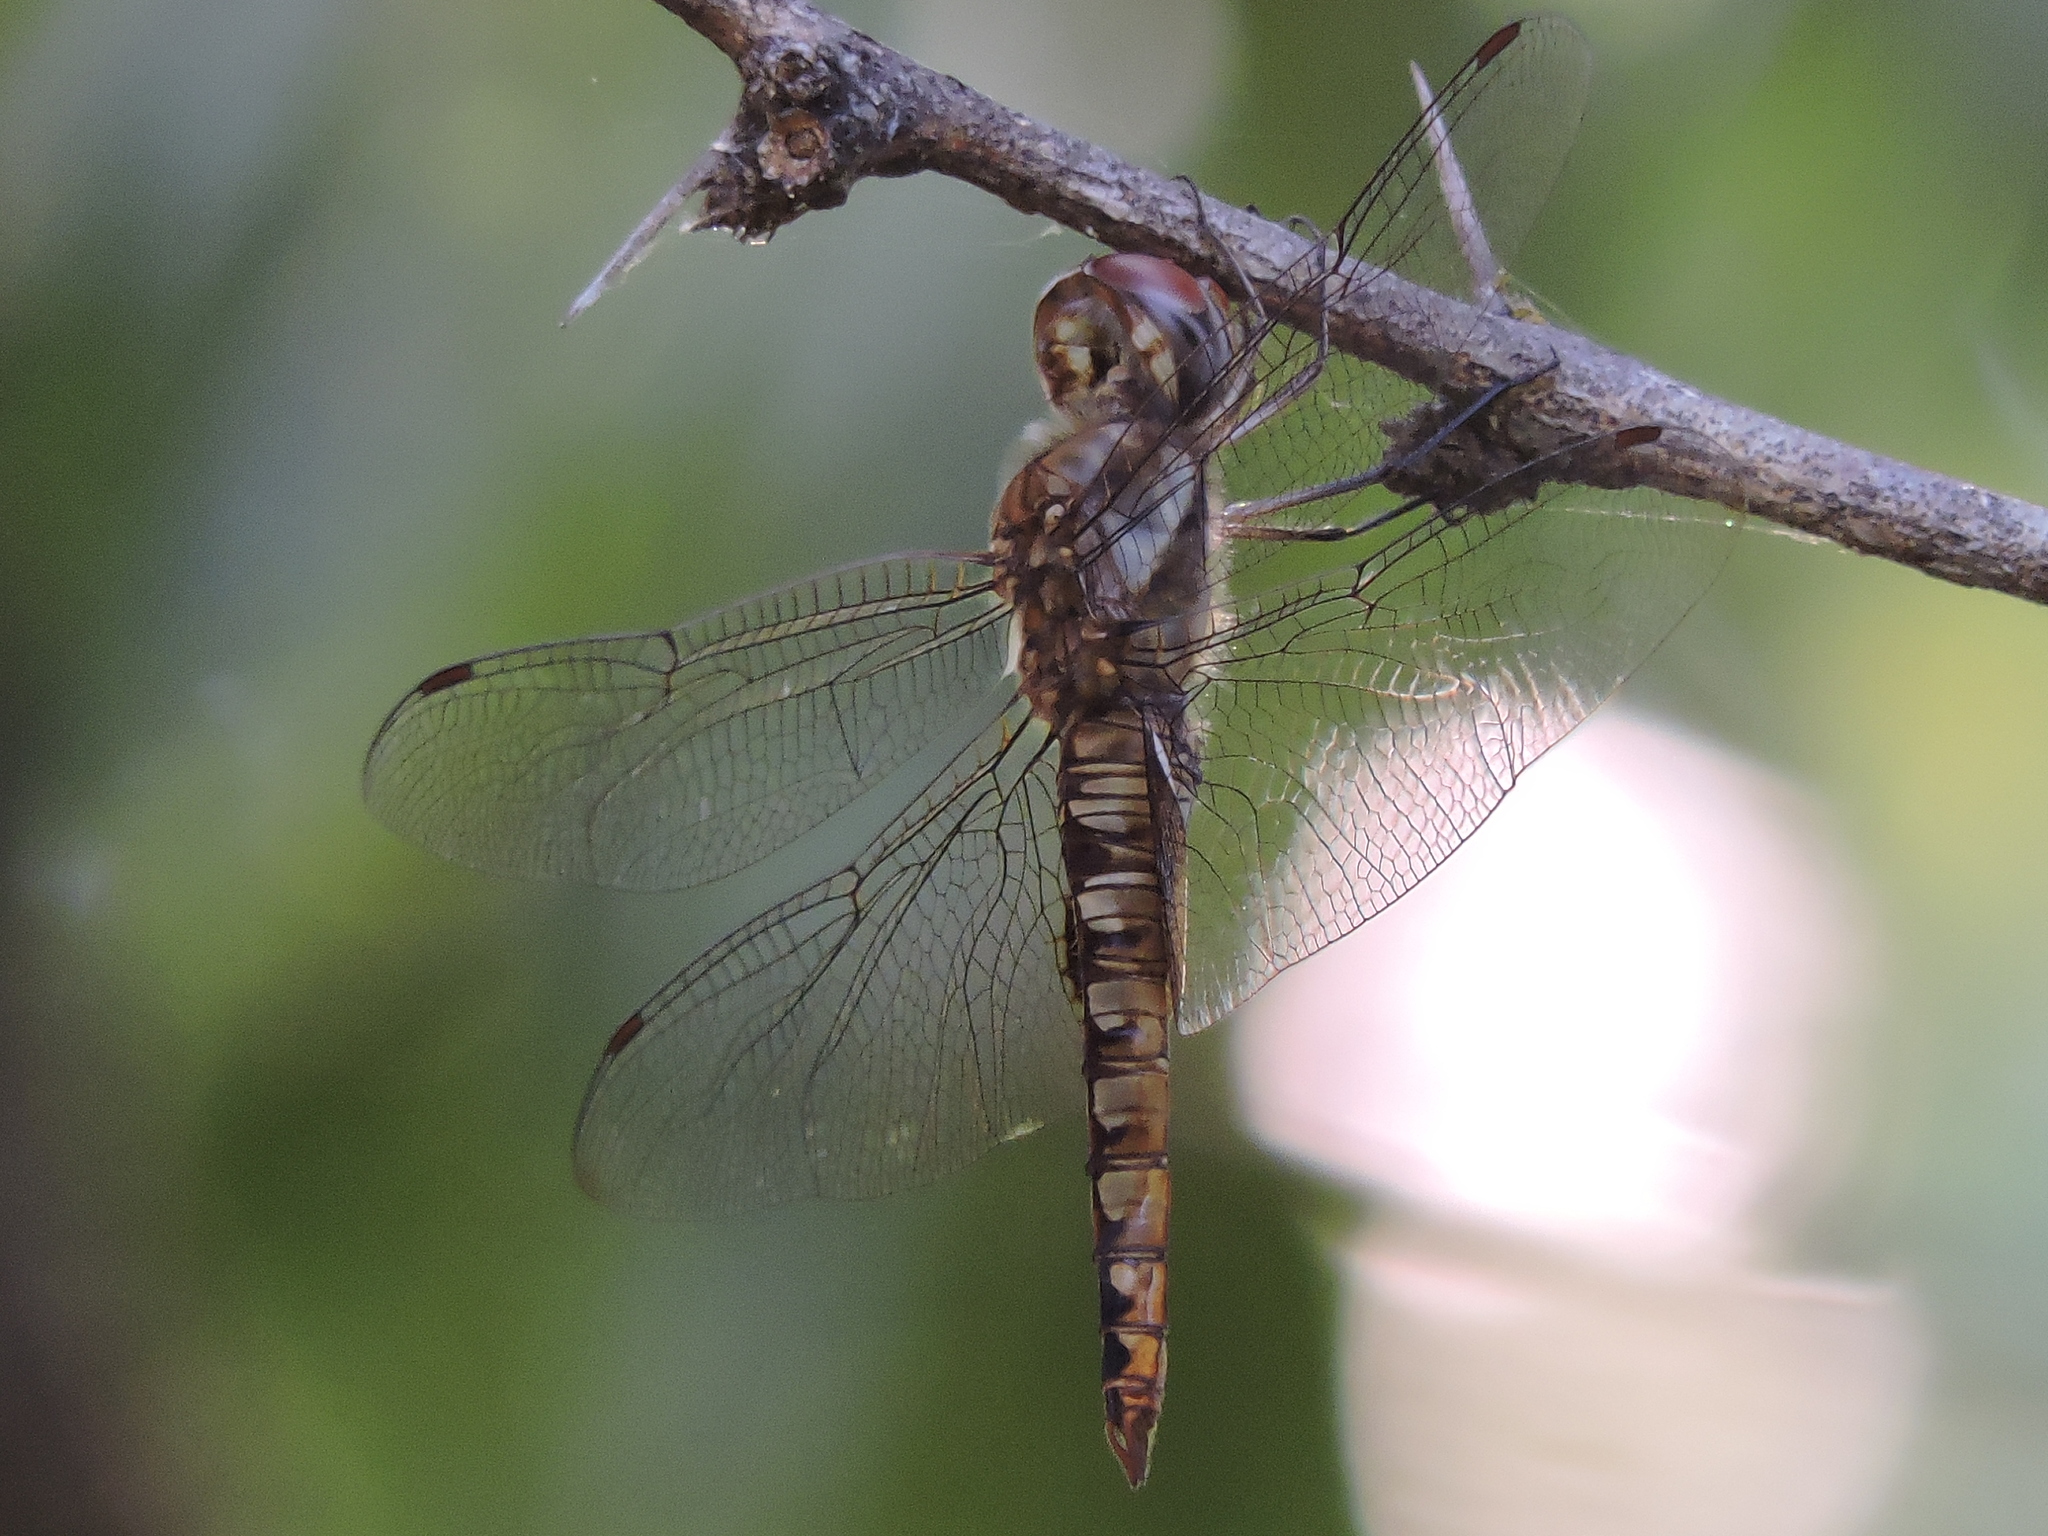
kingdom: Animalia
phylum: Arthropoda
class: Insecta
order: Odonata
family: Libellulidae
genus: Pantala
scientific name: Pantala hymenaea
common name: Spot-winged glider
